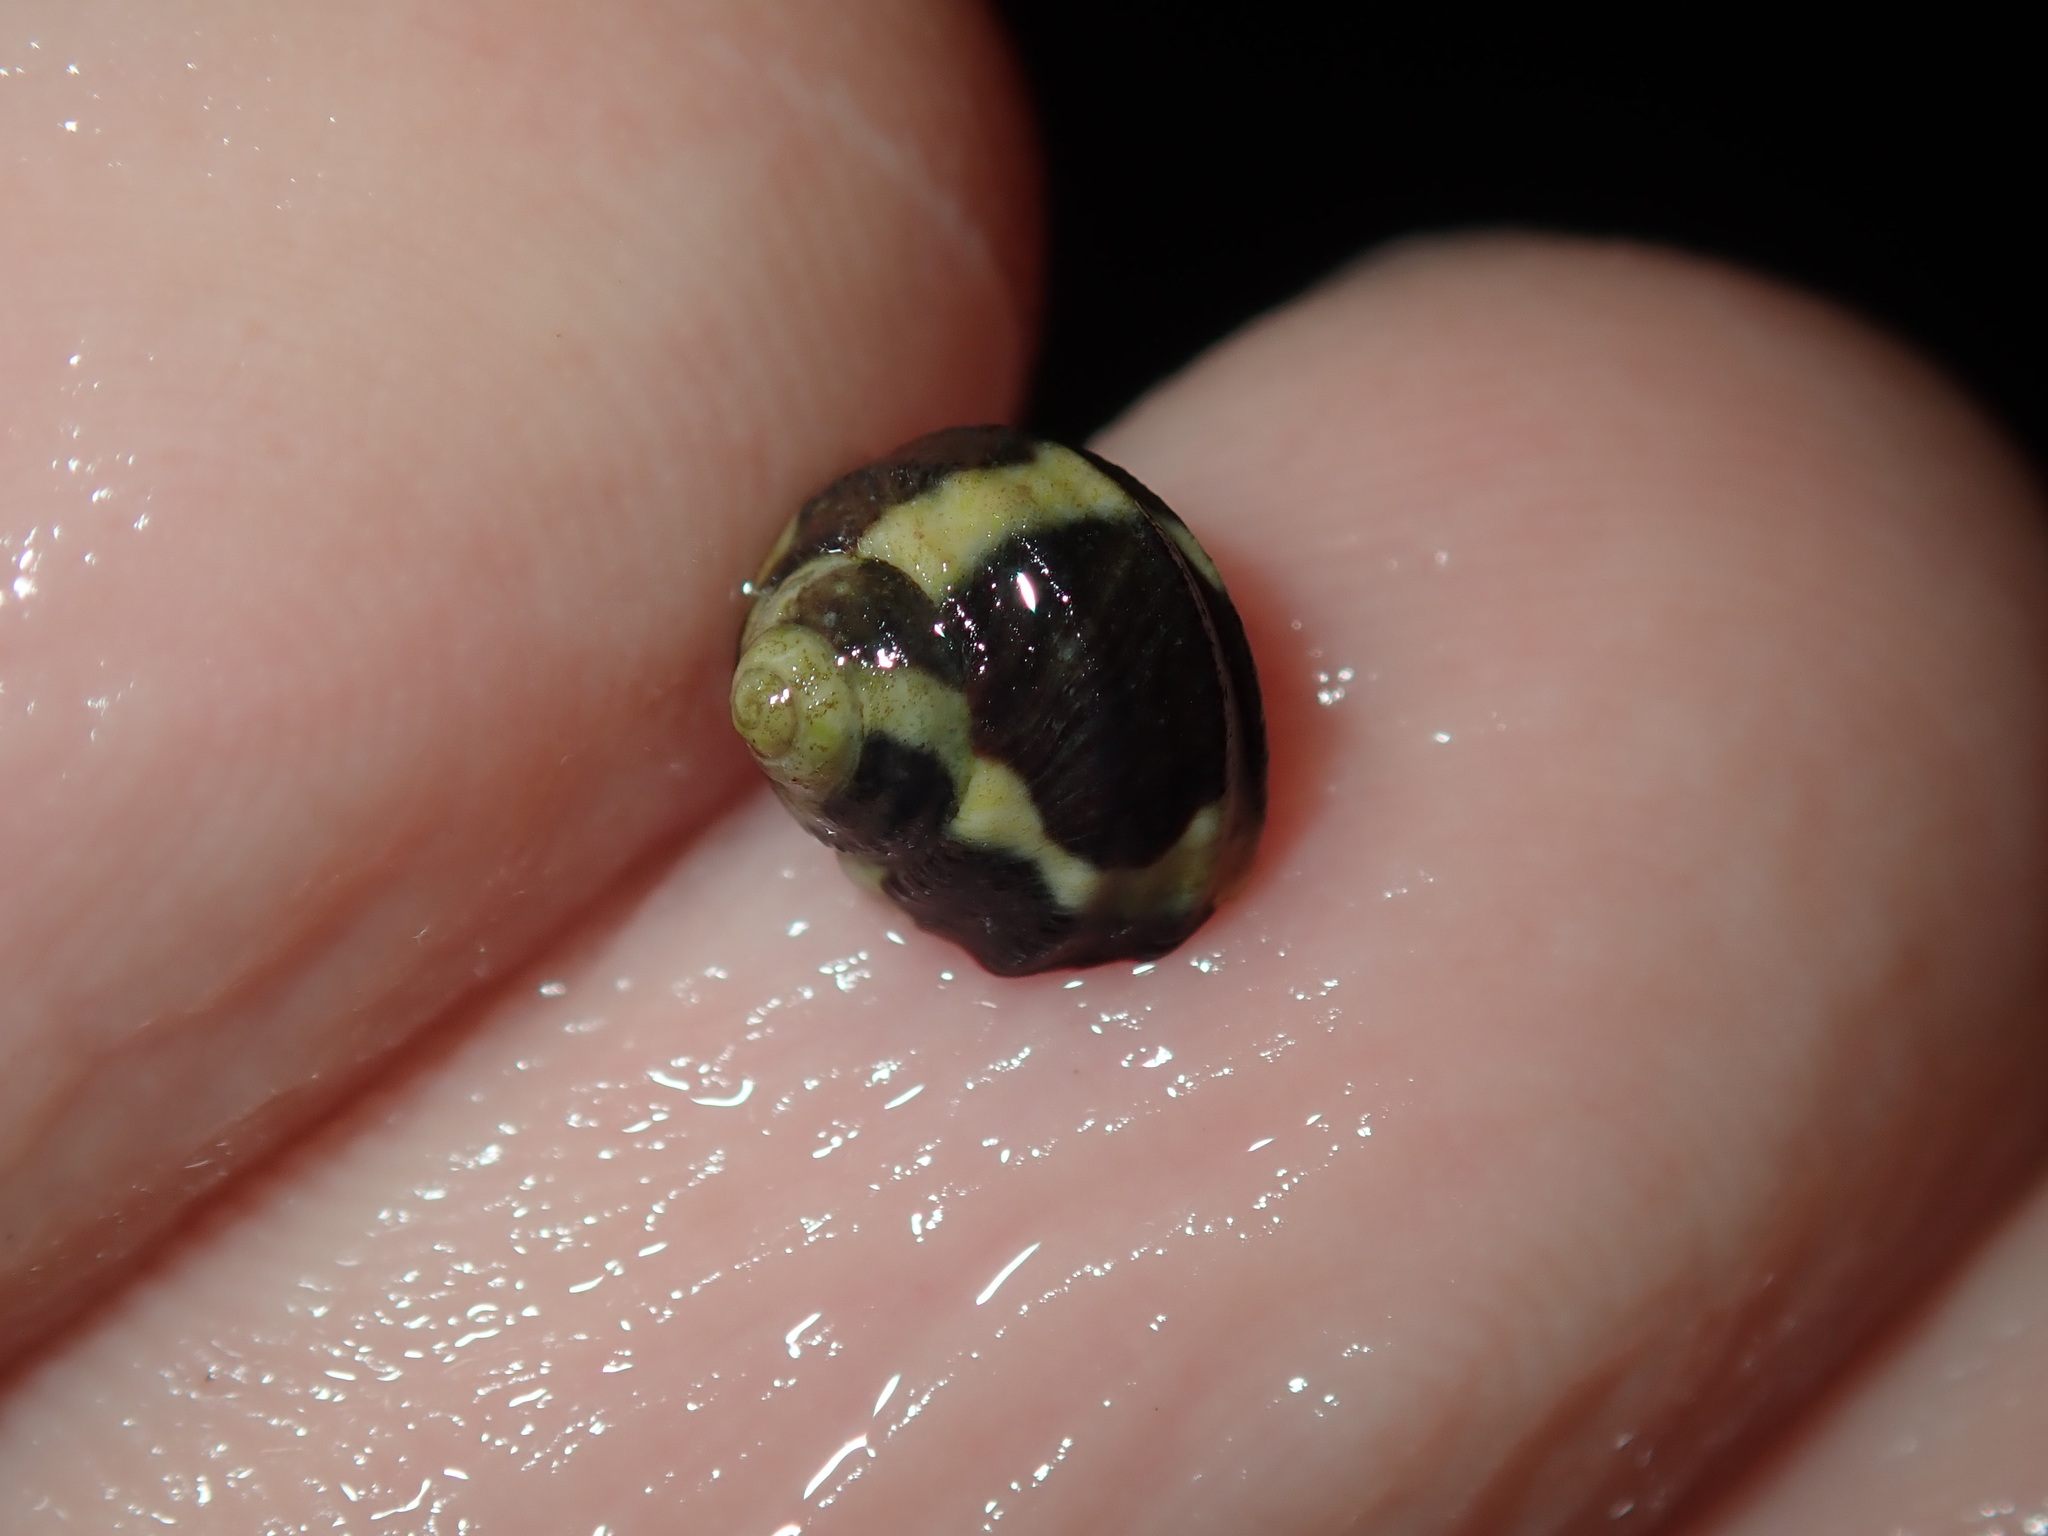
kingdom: Animalia
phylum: Mollusca
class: Gastropoda
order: Trochida
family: Trochidae
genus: Austrocochlea
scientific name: Austrocochlea porcata
